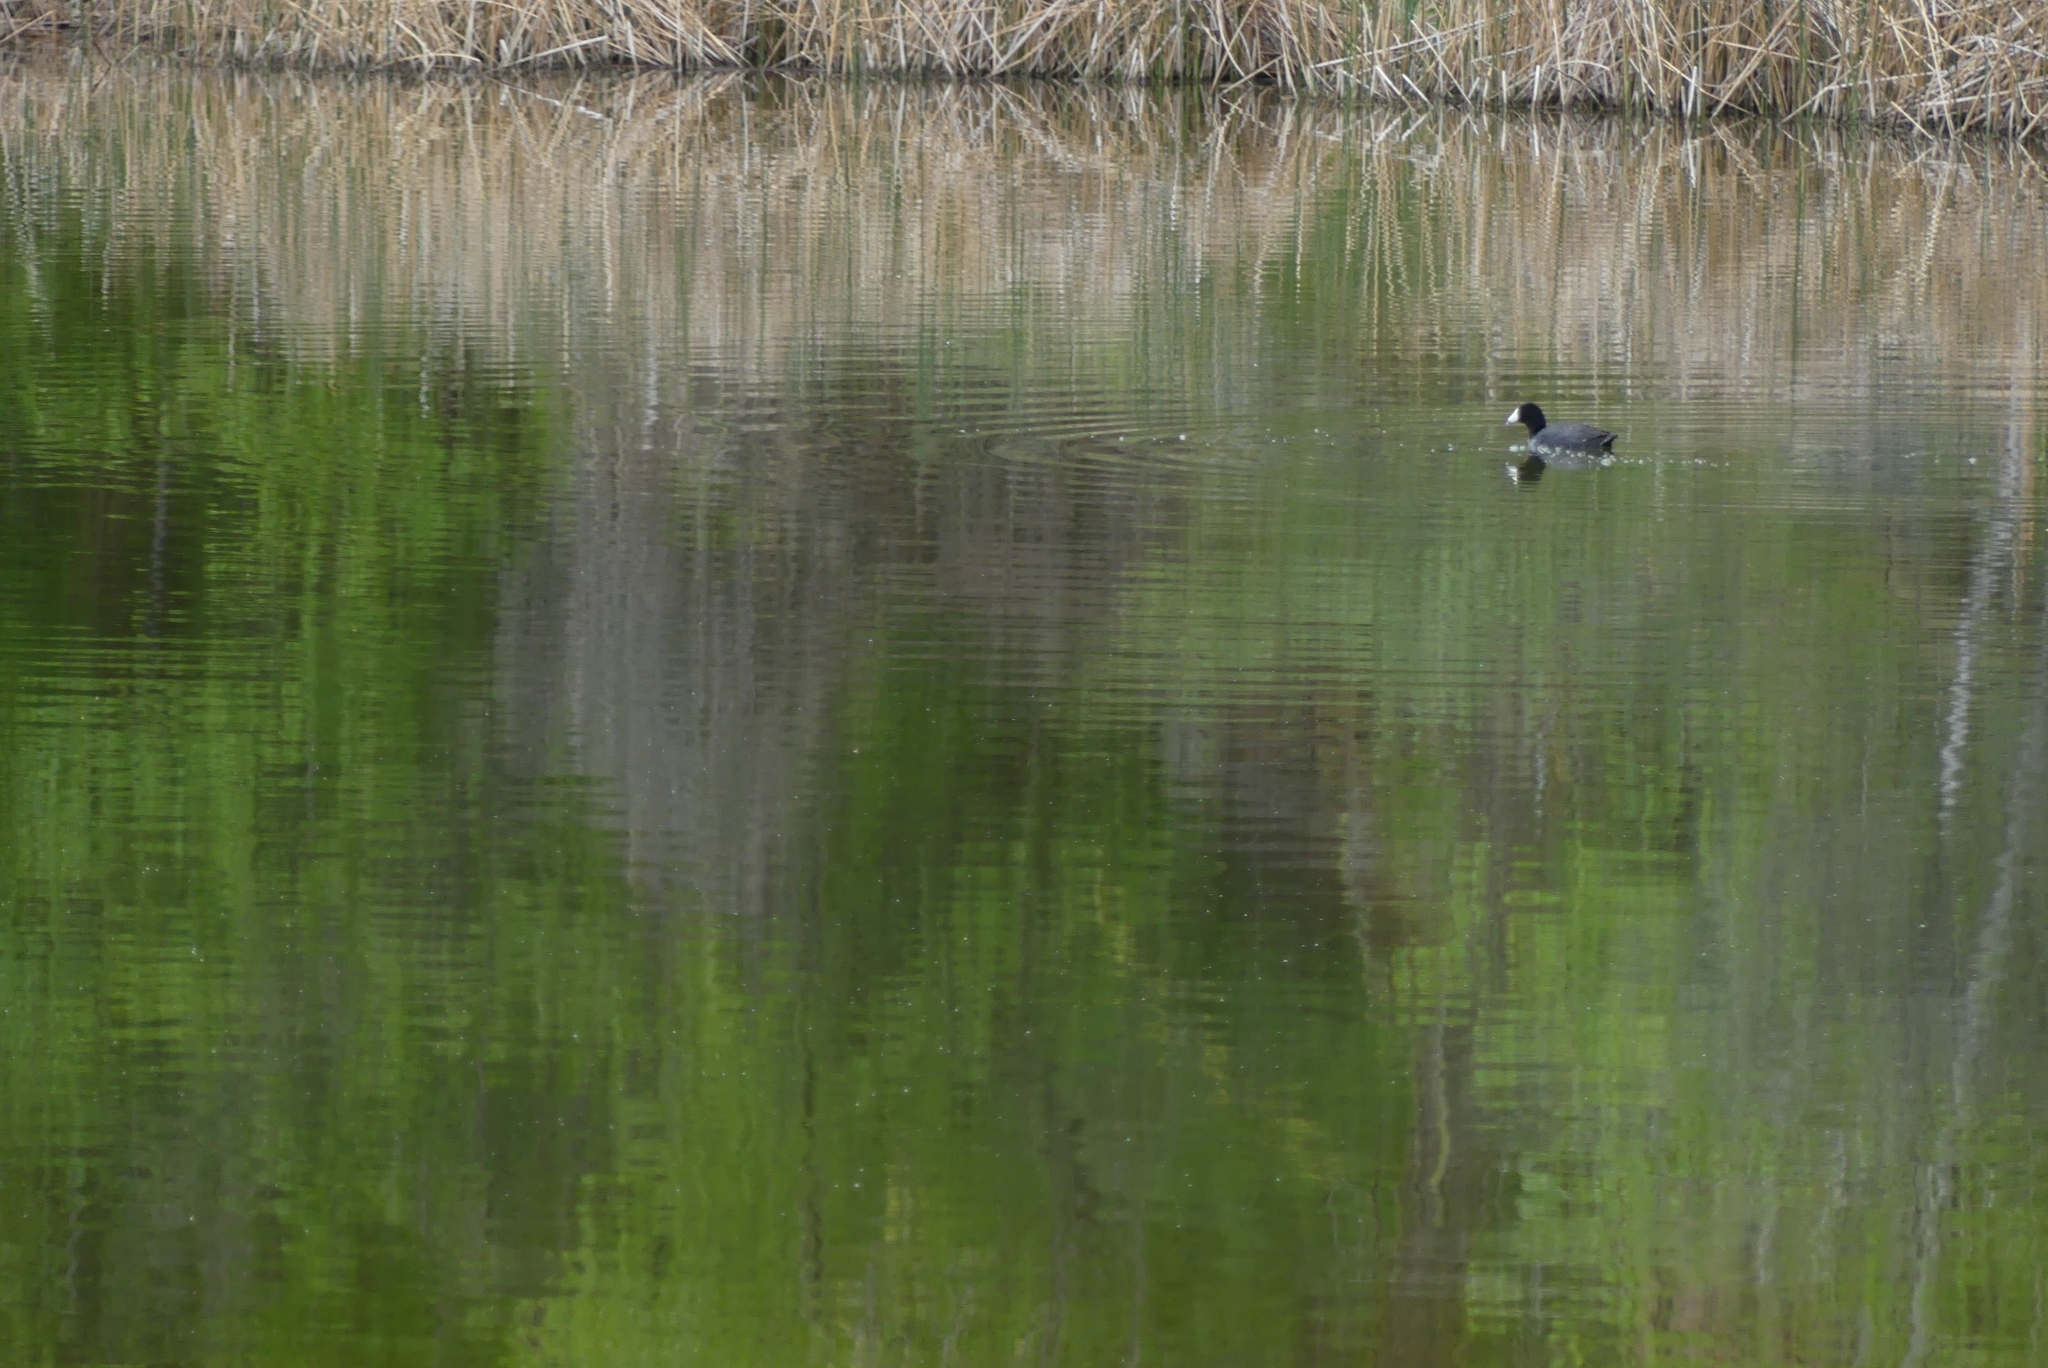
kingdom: Animalia
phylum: Chordata
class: Aves
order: Gruiformes
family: Rallidae
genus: Fulica
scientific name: Fulica americana
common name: American coot
